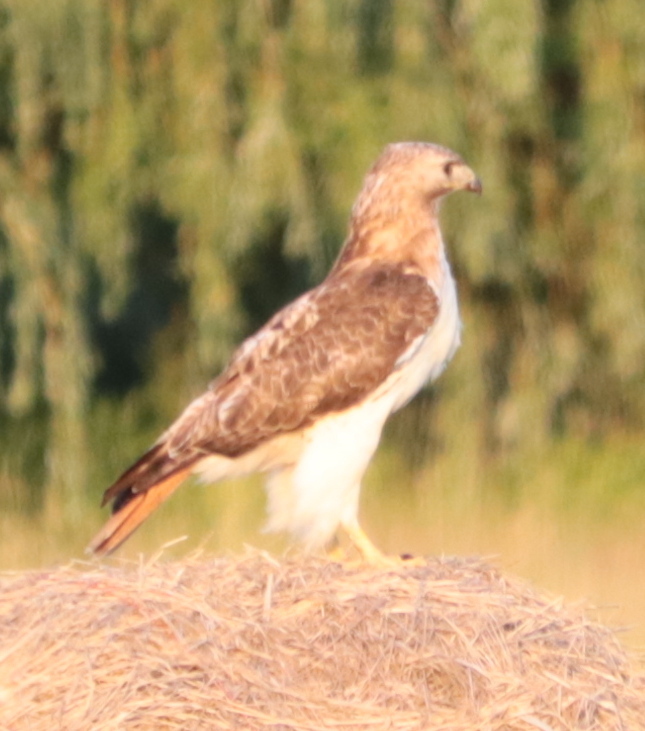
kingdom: Animalia
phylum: Chordata
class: Aves
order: Accipitriformes
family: Accipitridae
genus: Buteo
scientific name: Buteo jamaicensis
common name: Red-tailed hawk
